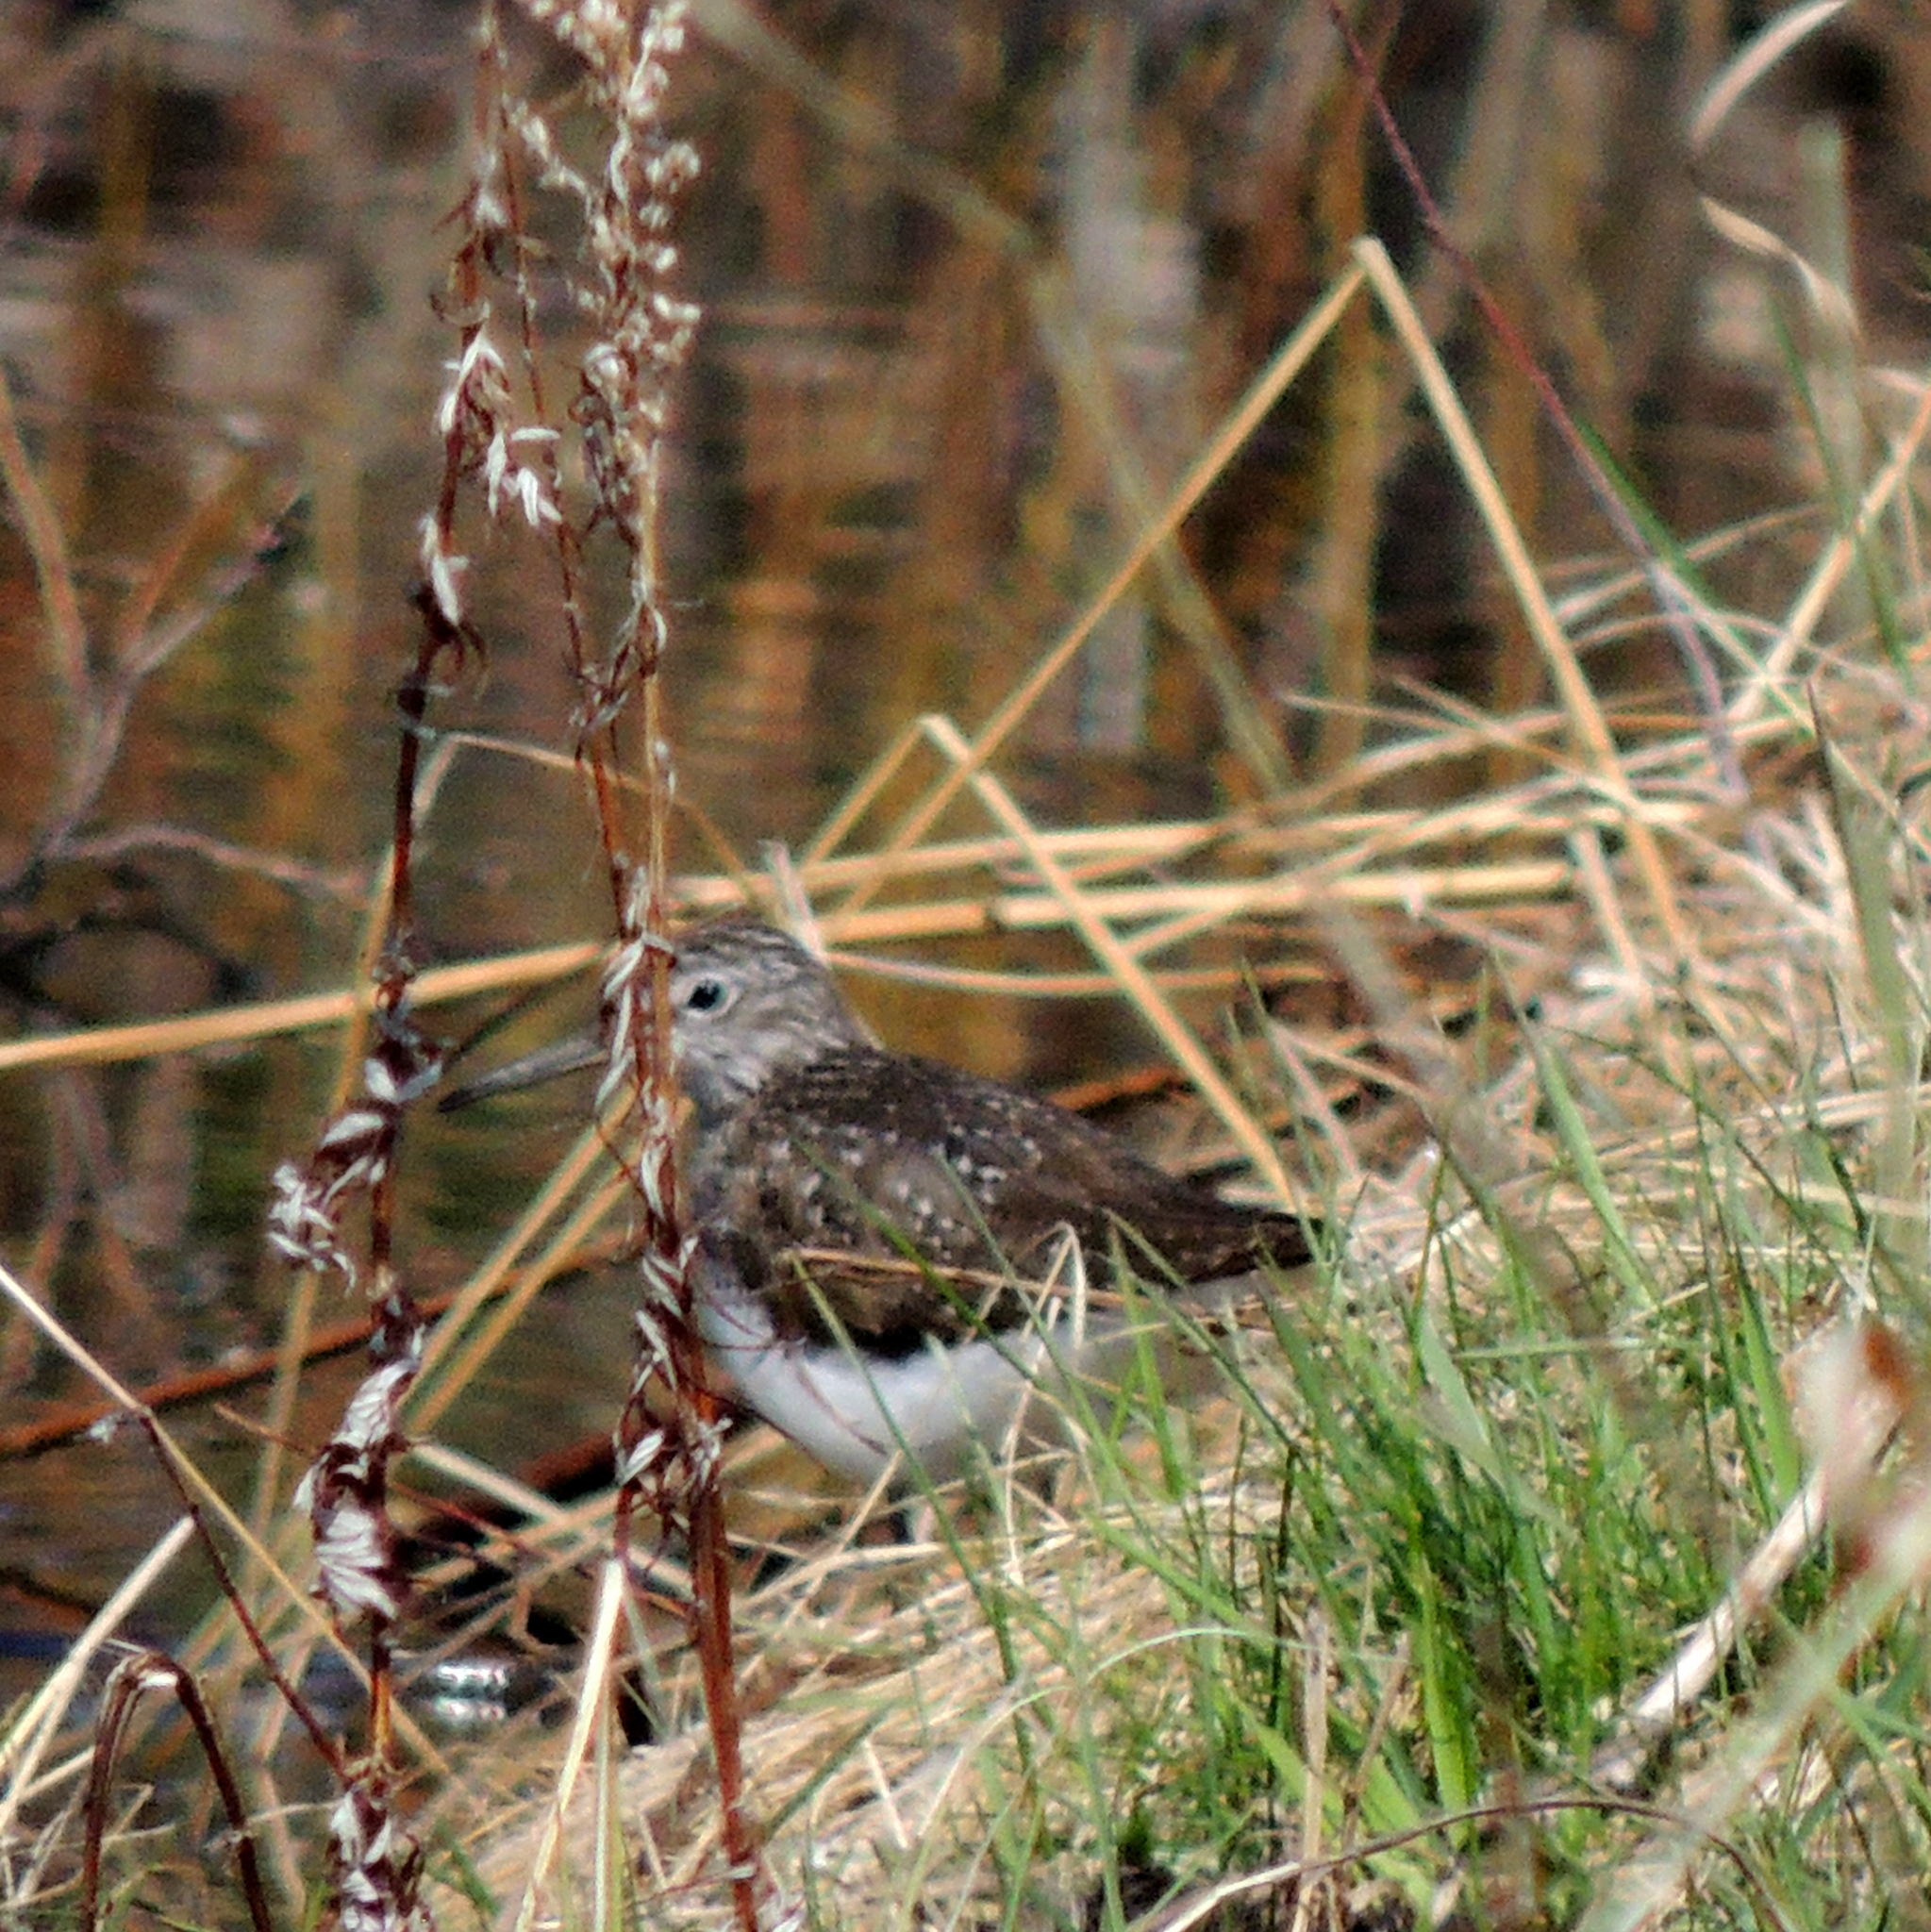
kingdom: Animalia
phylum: Chordata
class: Aves
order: Charadriiformes
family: Scolopacidae
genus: Tringa
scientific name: Tringa ochropus
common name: Green sandpiper
